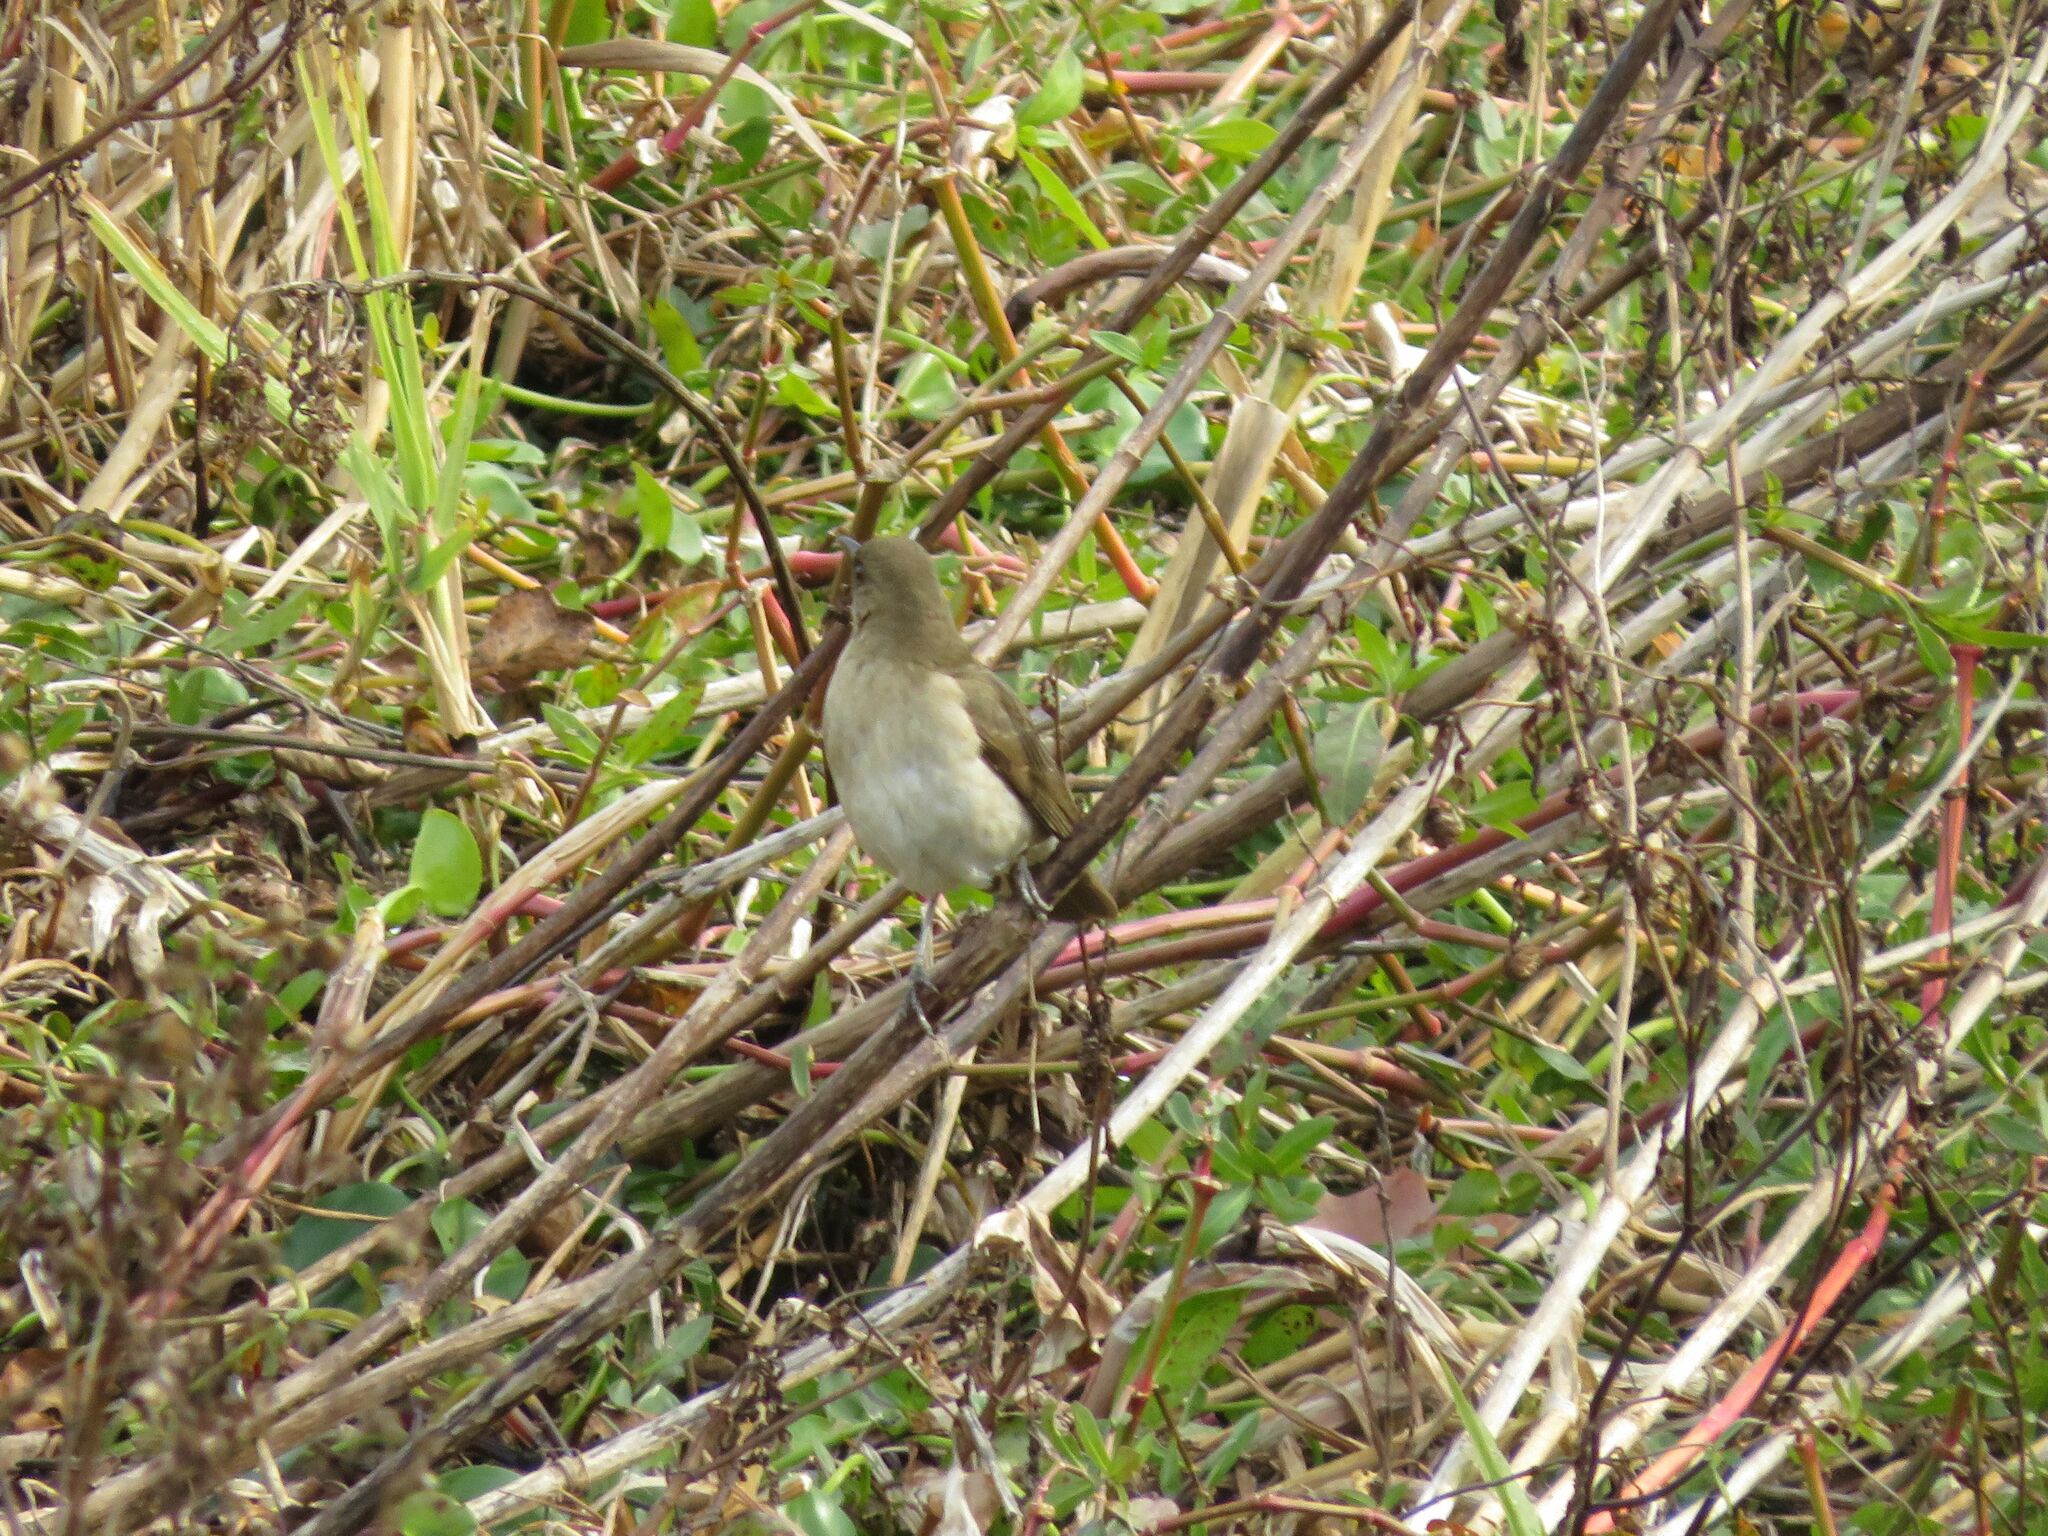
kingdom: Animalia
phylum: Chordata
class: Aves
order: Passeriformes
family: Turdidae
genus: Turdus
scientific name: Turdus amaurochalinus
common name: Creamy-bellied thrush
